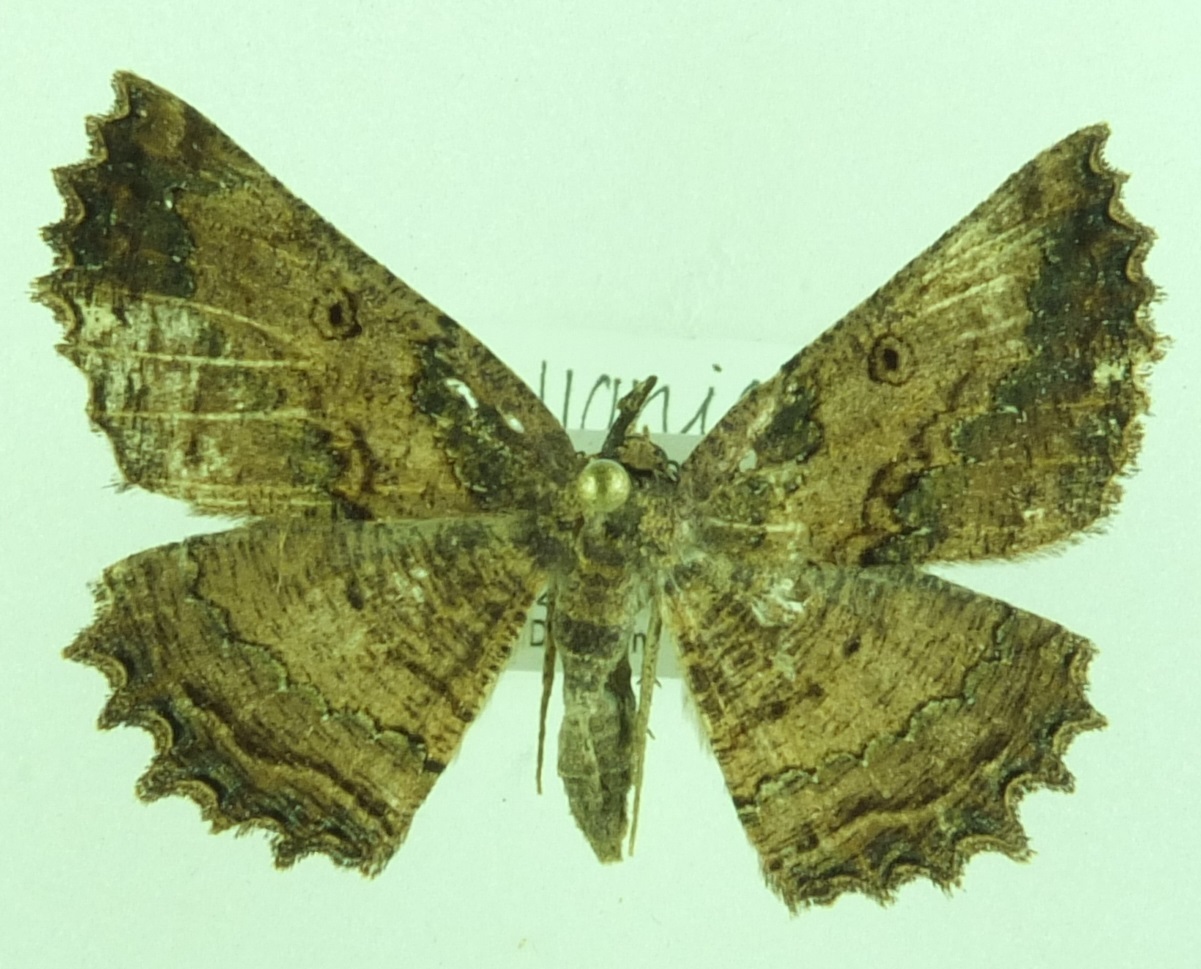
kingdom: Animalia
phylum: Arthropoda
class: Insecta
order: Lepidoptera
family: Geometridae
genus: Gellonia
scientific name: Gellonia pannularia
